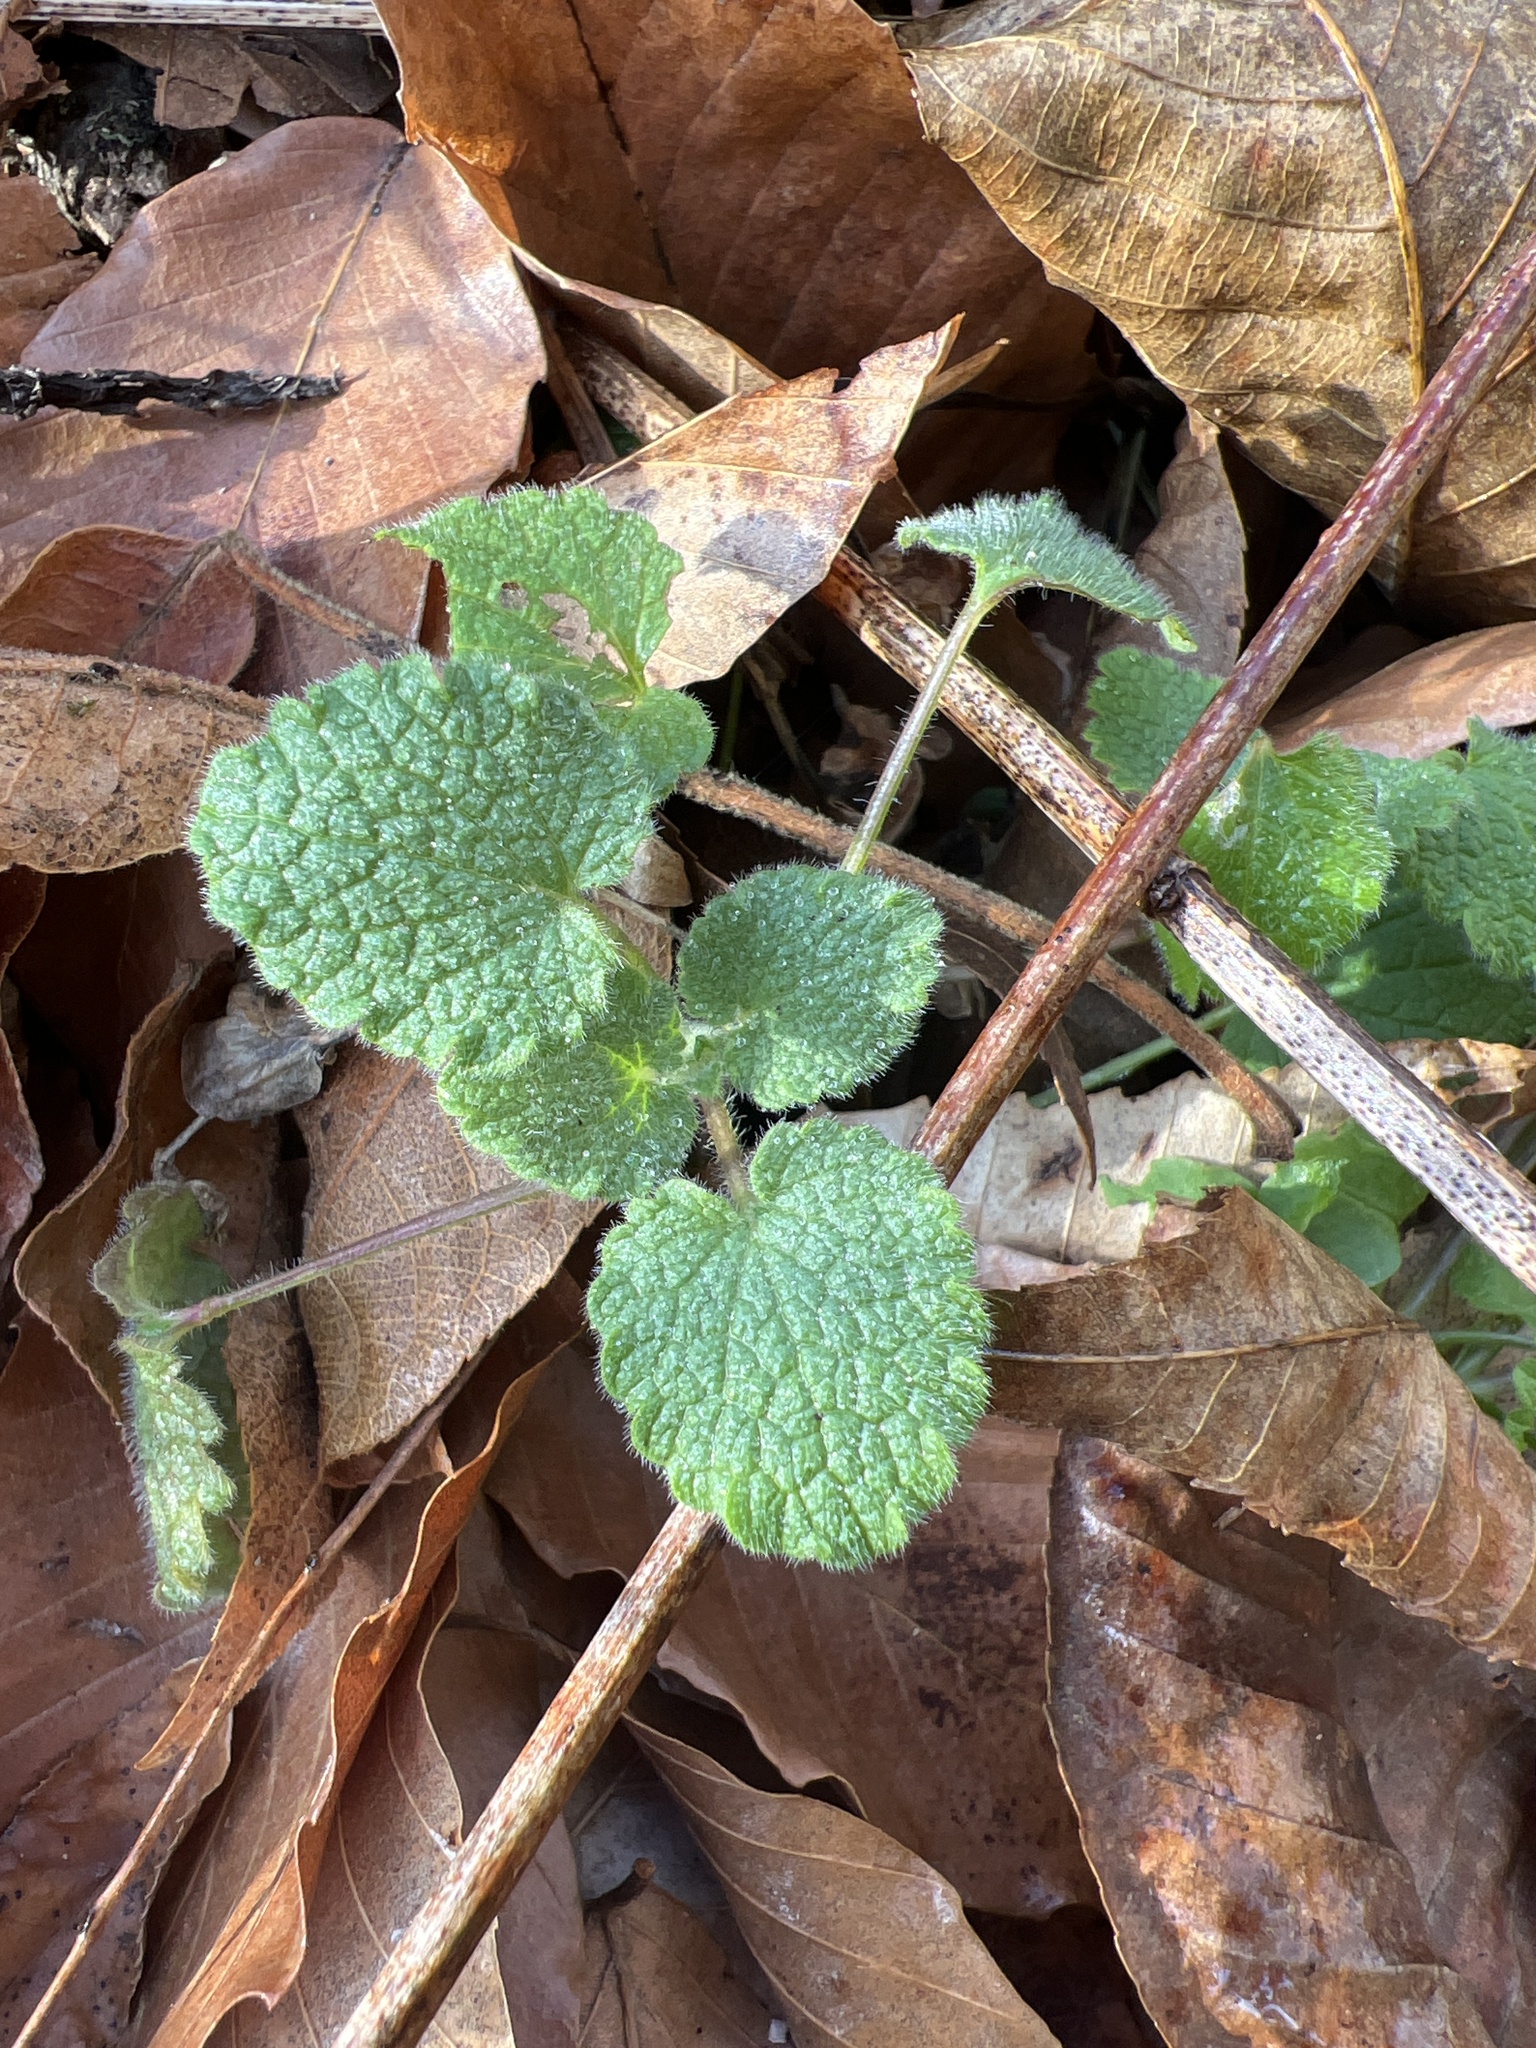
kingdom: Plantae
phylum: Tracheophyta
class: Magnoliopsida
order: Lamiales
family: Lamiaceae
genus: Lamium
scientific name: Lamium purpureum
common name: Red dead-nettle
